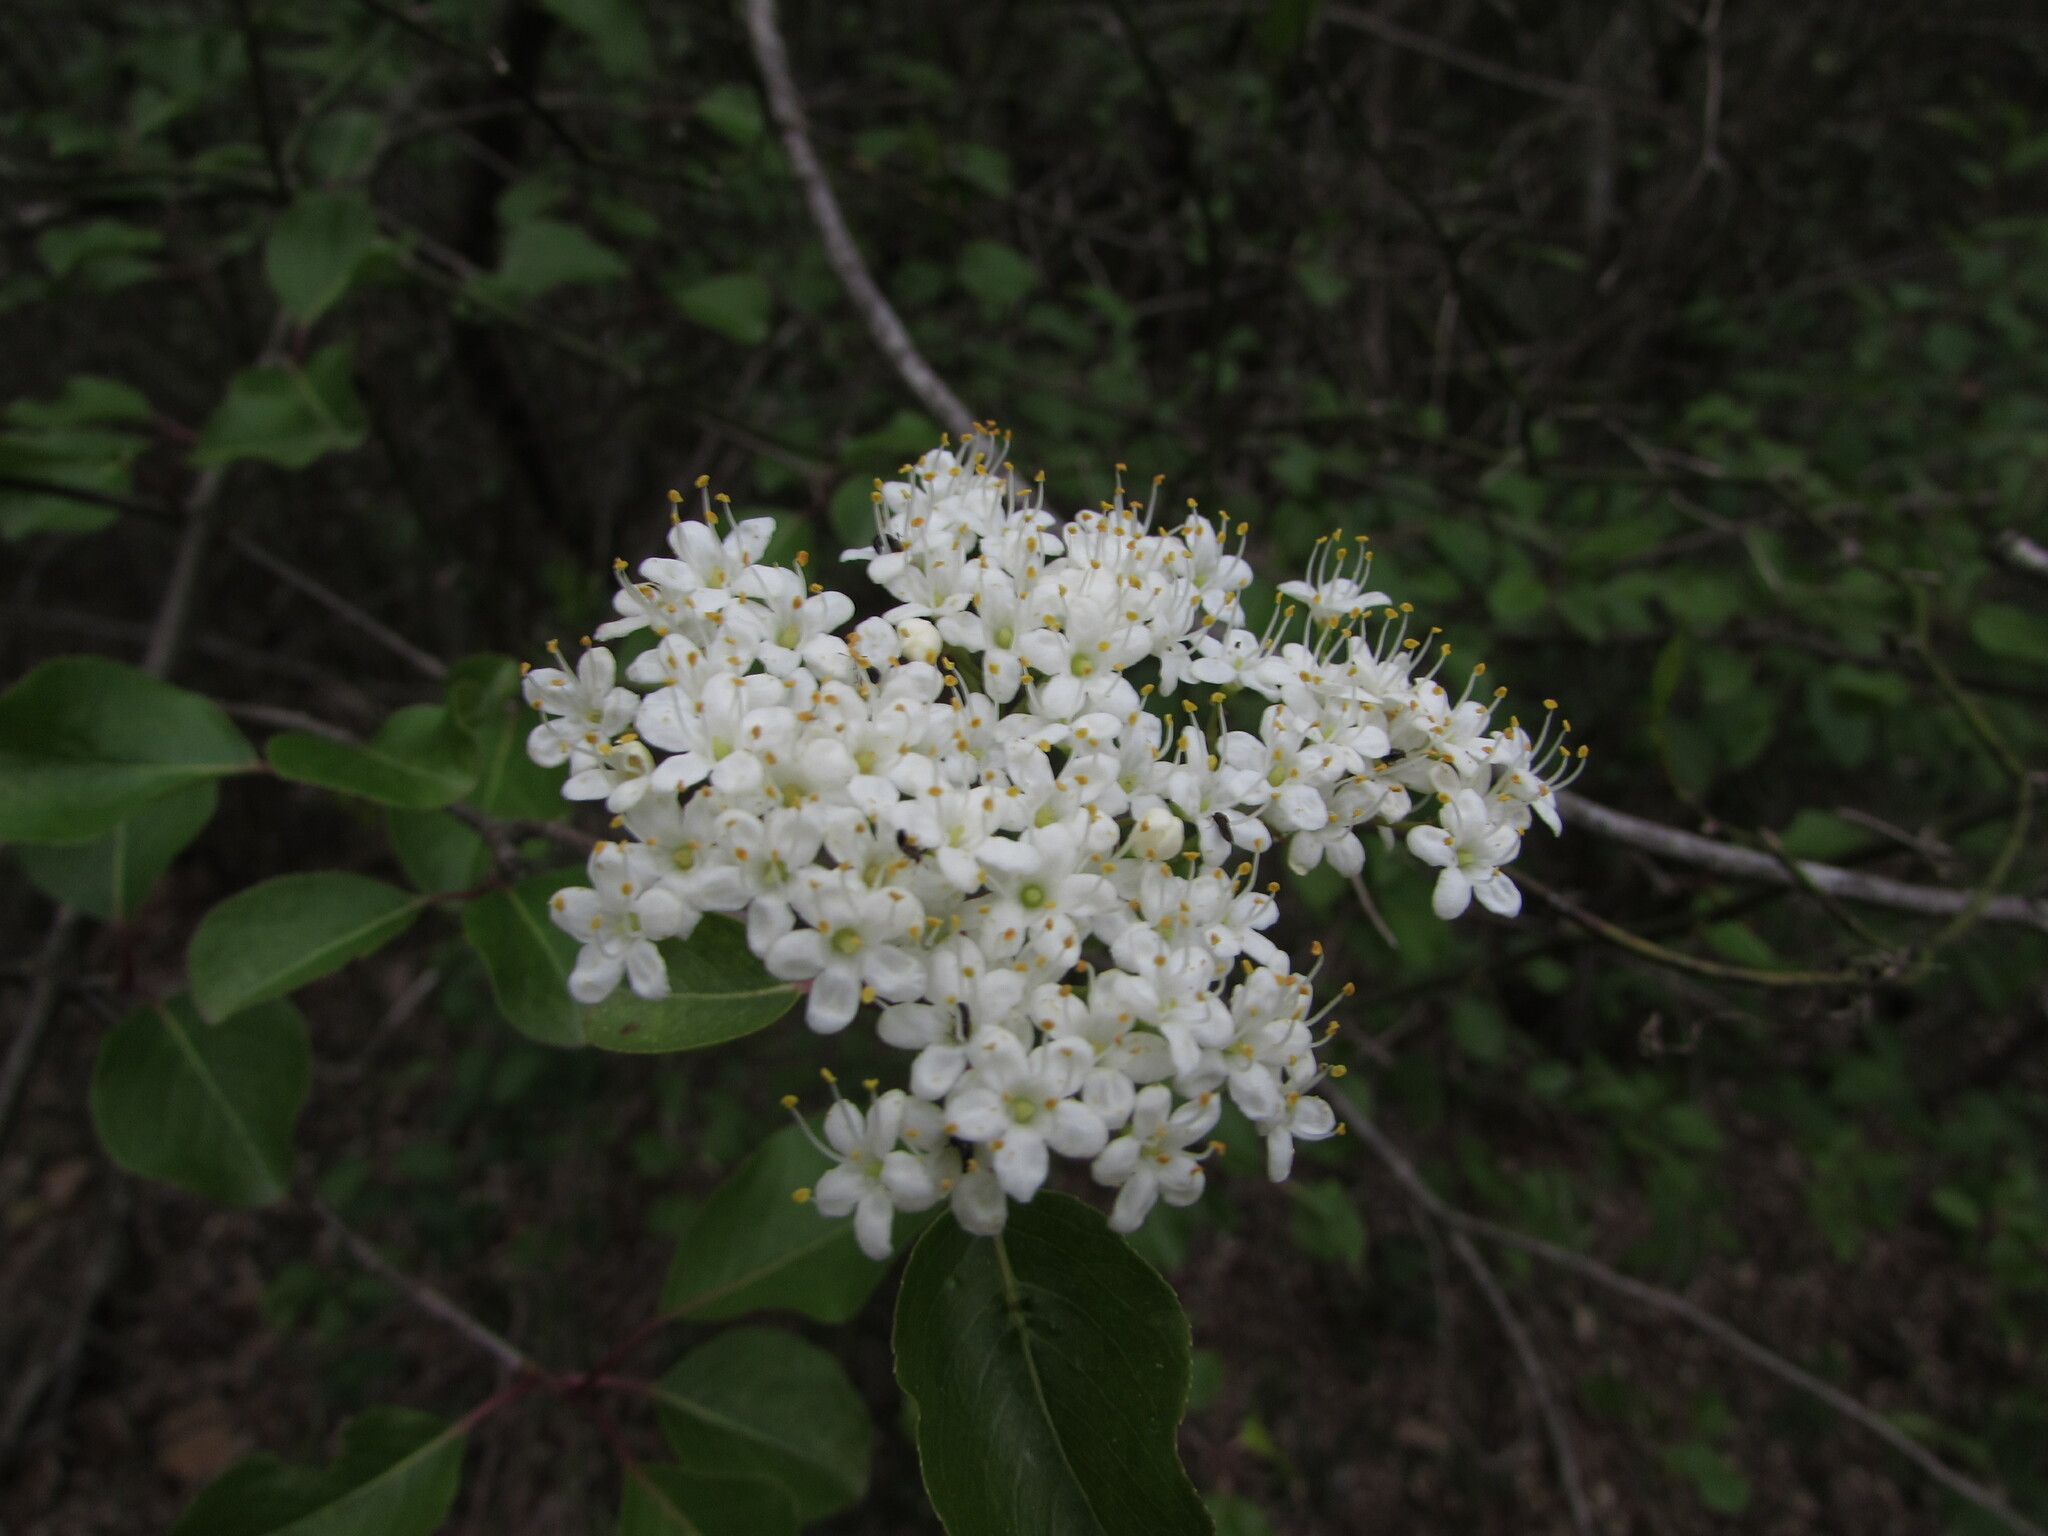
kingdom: Plantae
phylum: Tracheophyta
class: Magnoliopsida
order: Dipsacales
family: Viburnaceae
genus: Viburnum
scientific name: Viburnum prunifolium
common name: Black haw
